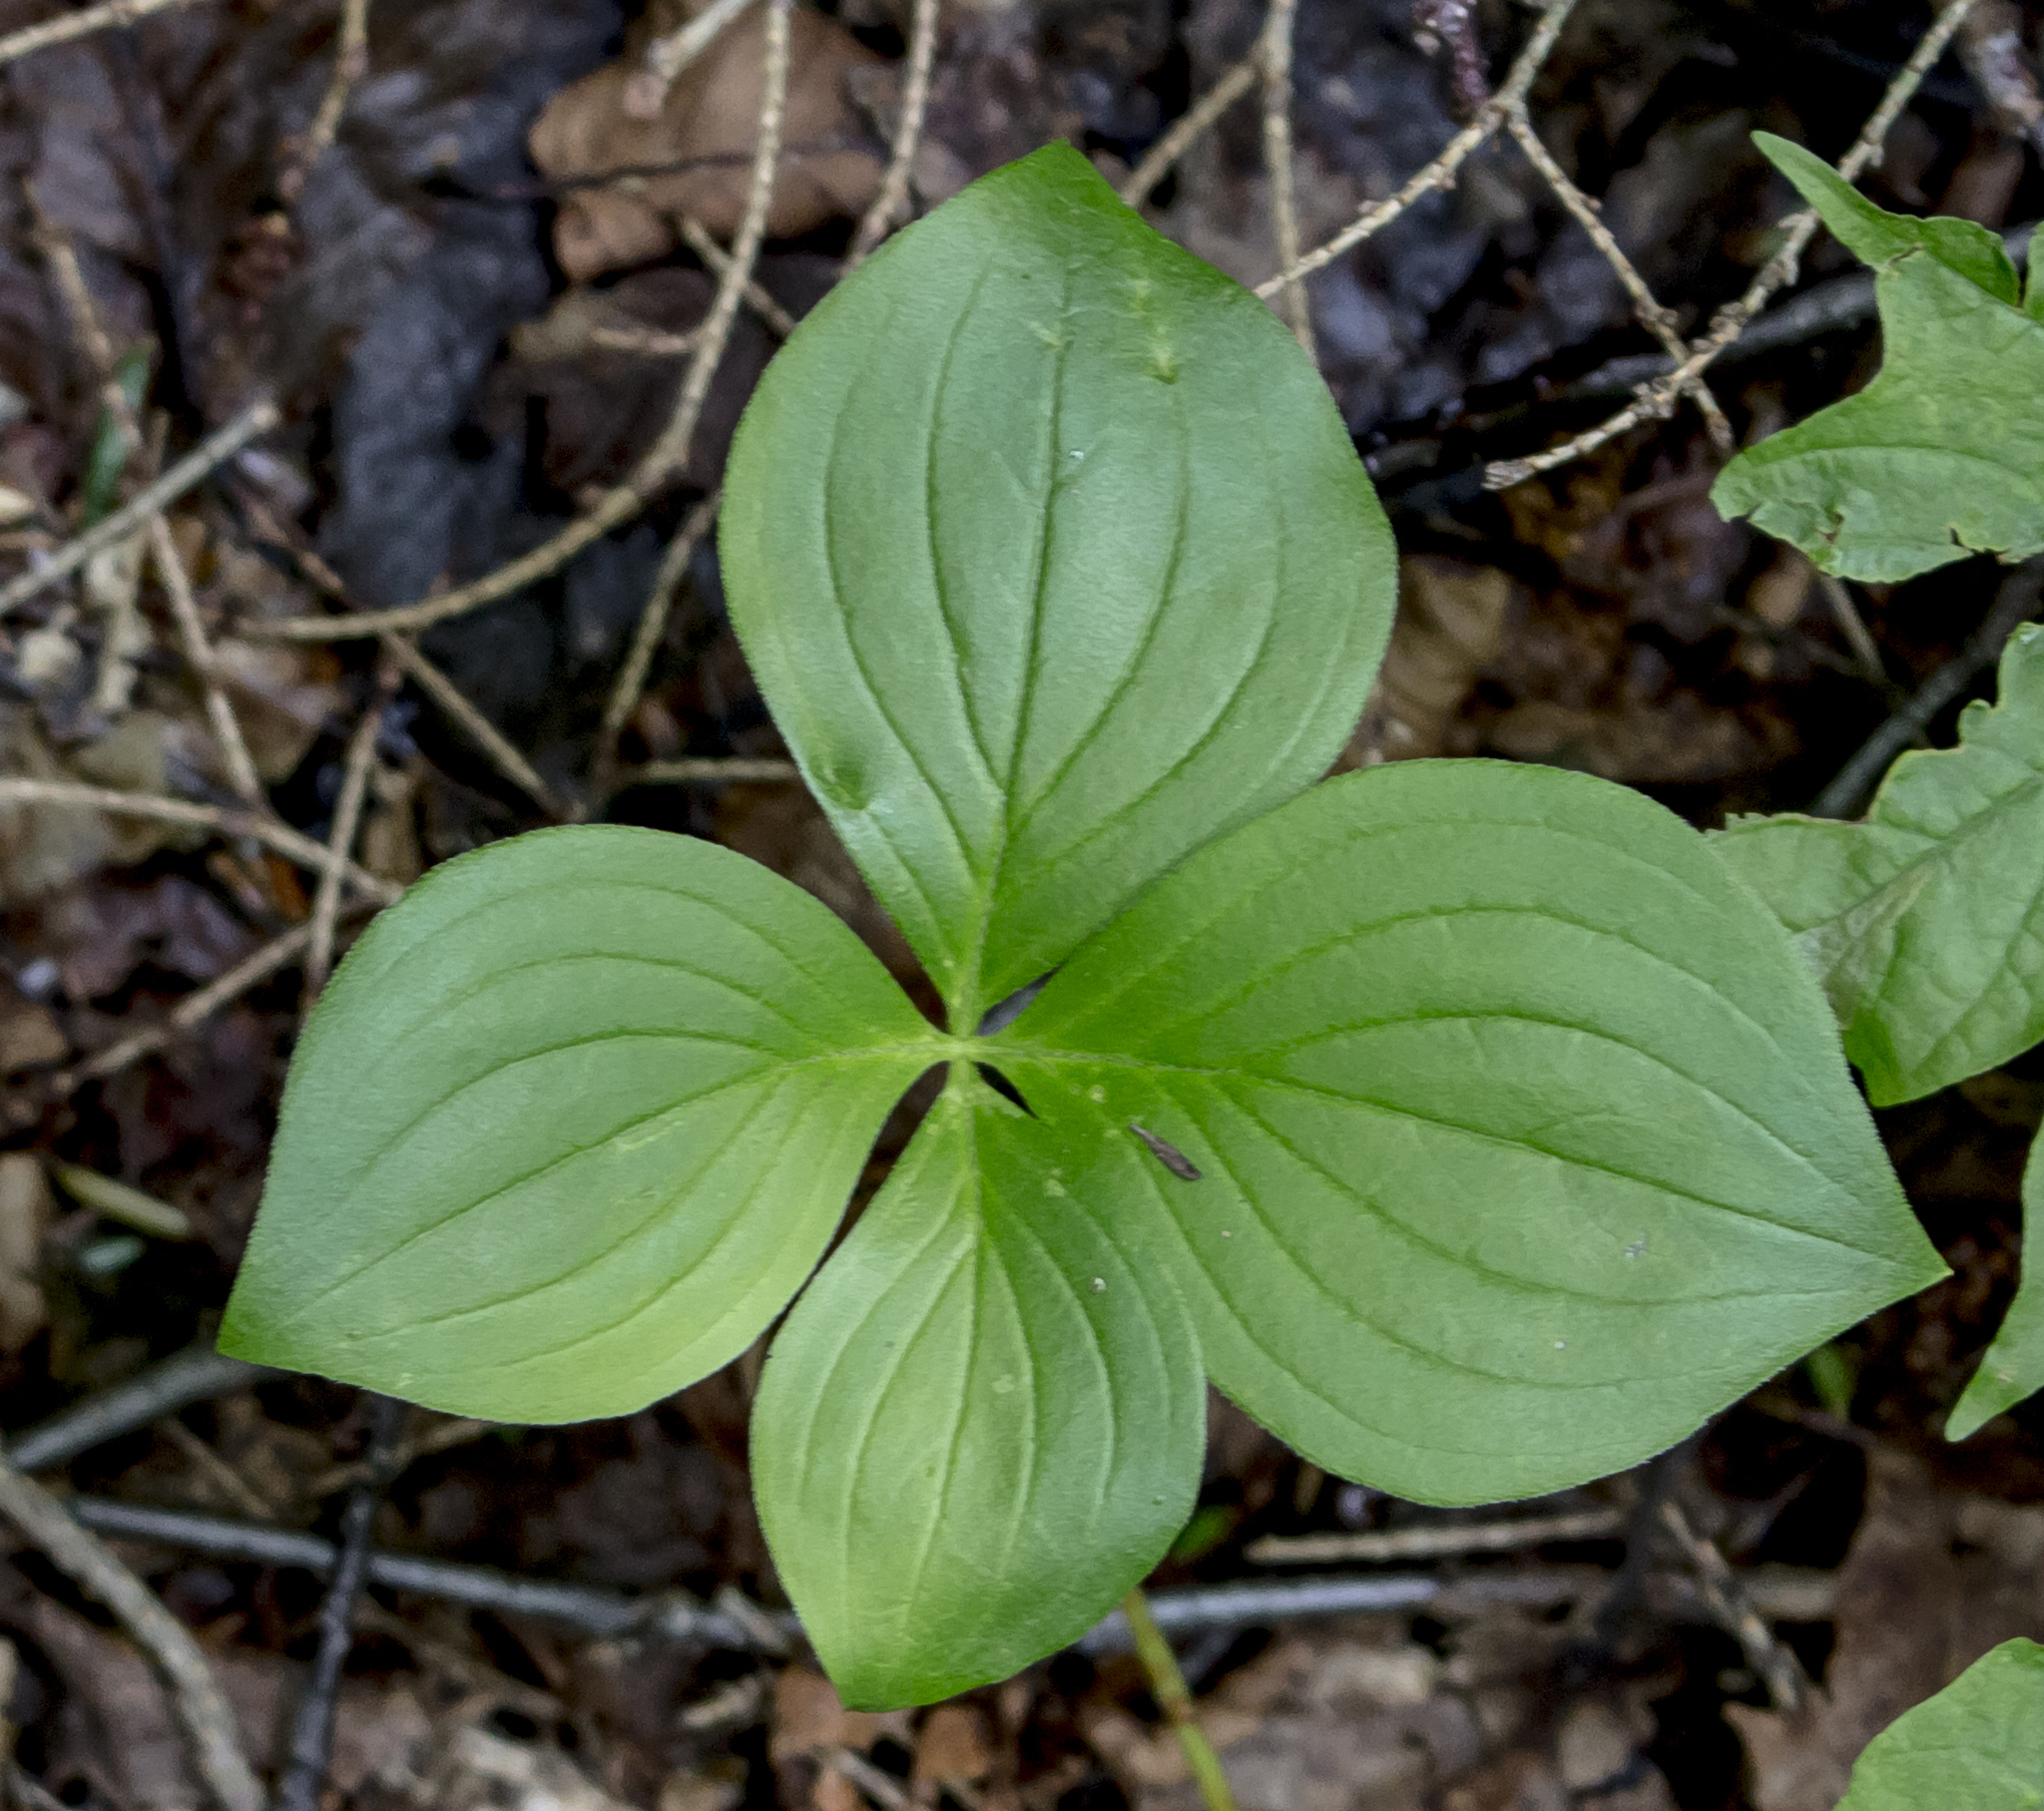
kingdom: Plantae
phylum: Tracheophyta
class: Magnoliopsida
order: Cornales
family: Cornaceae
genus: Cornus
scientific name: Cornus canadensis
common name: Creeping dogwood
